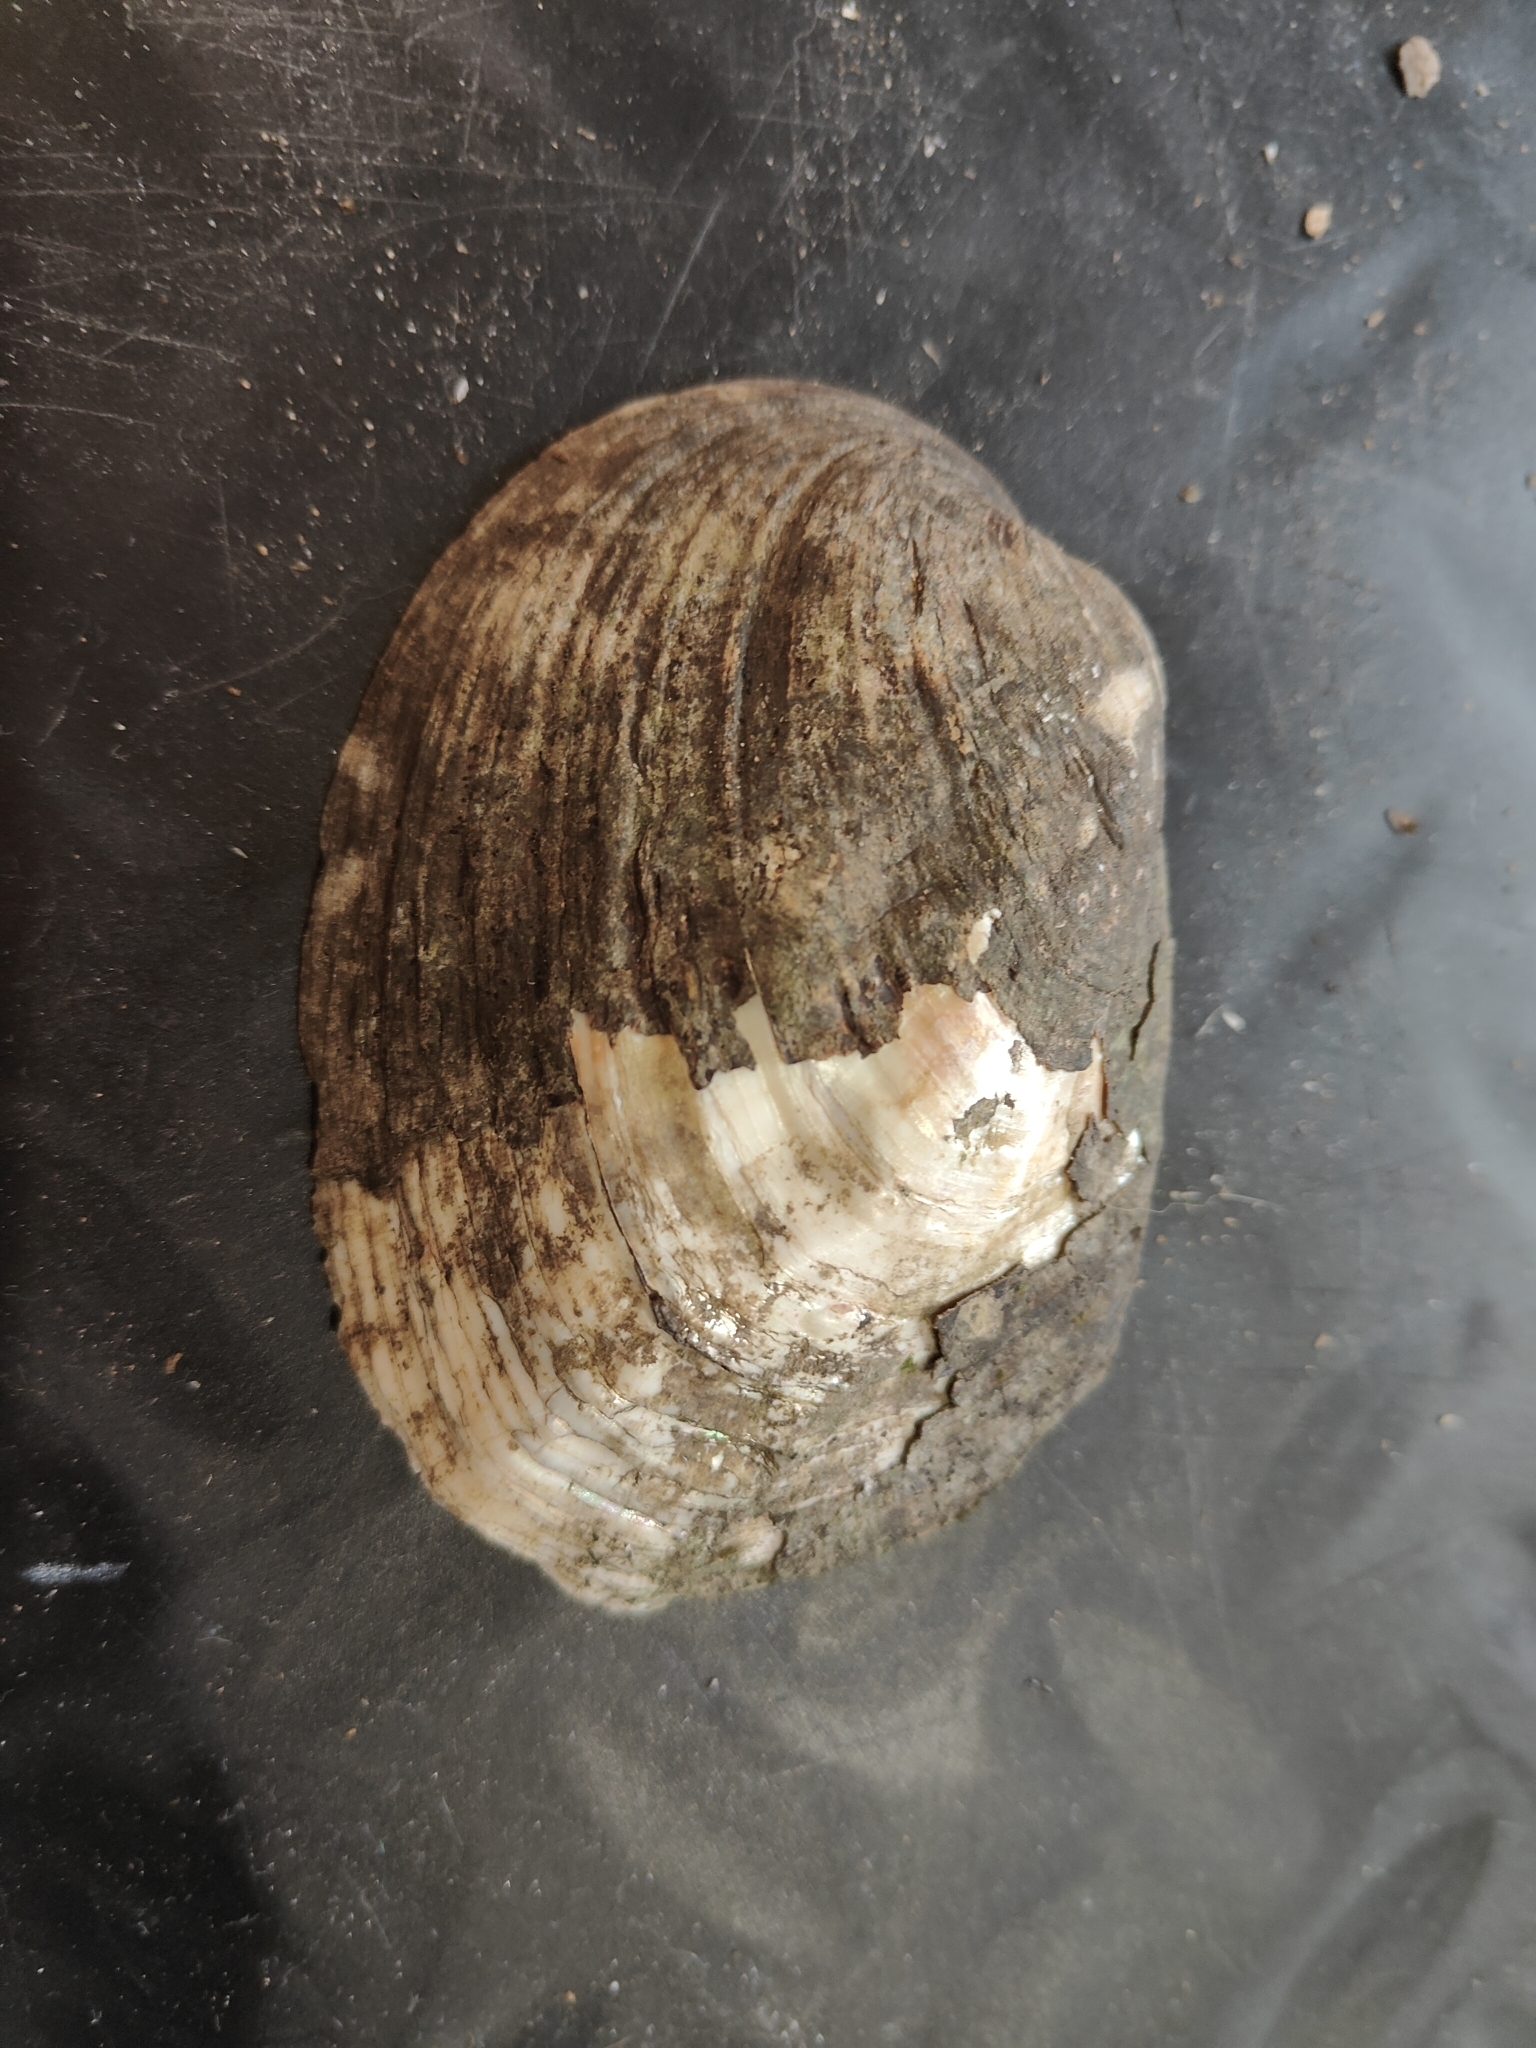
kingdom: Animalia
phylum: Mollusca
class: Bivalvia
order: Unionida
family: Unionidae
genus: Amblema
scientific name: Amblema plicata
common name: Threeridge
